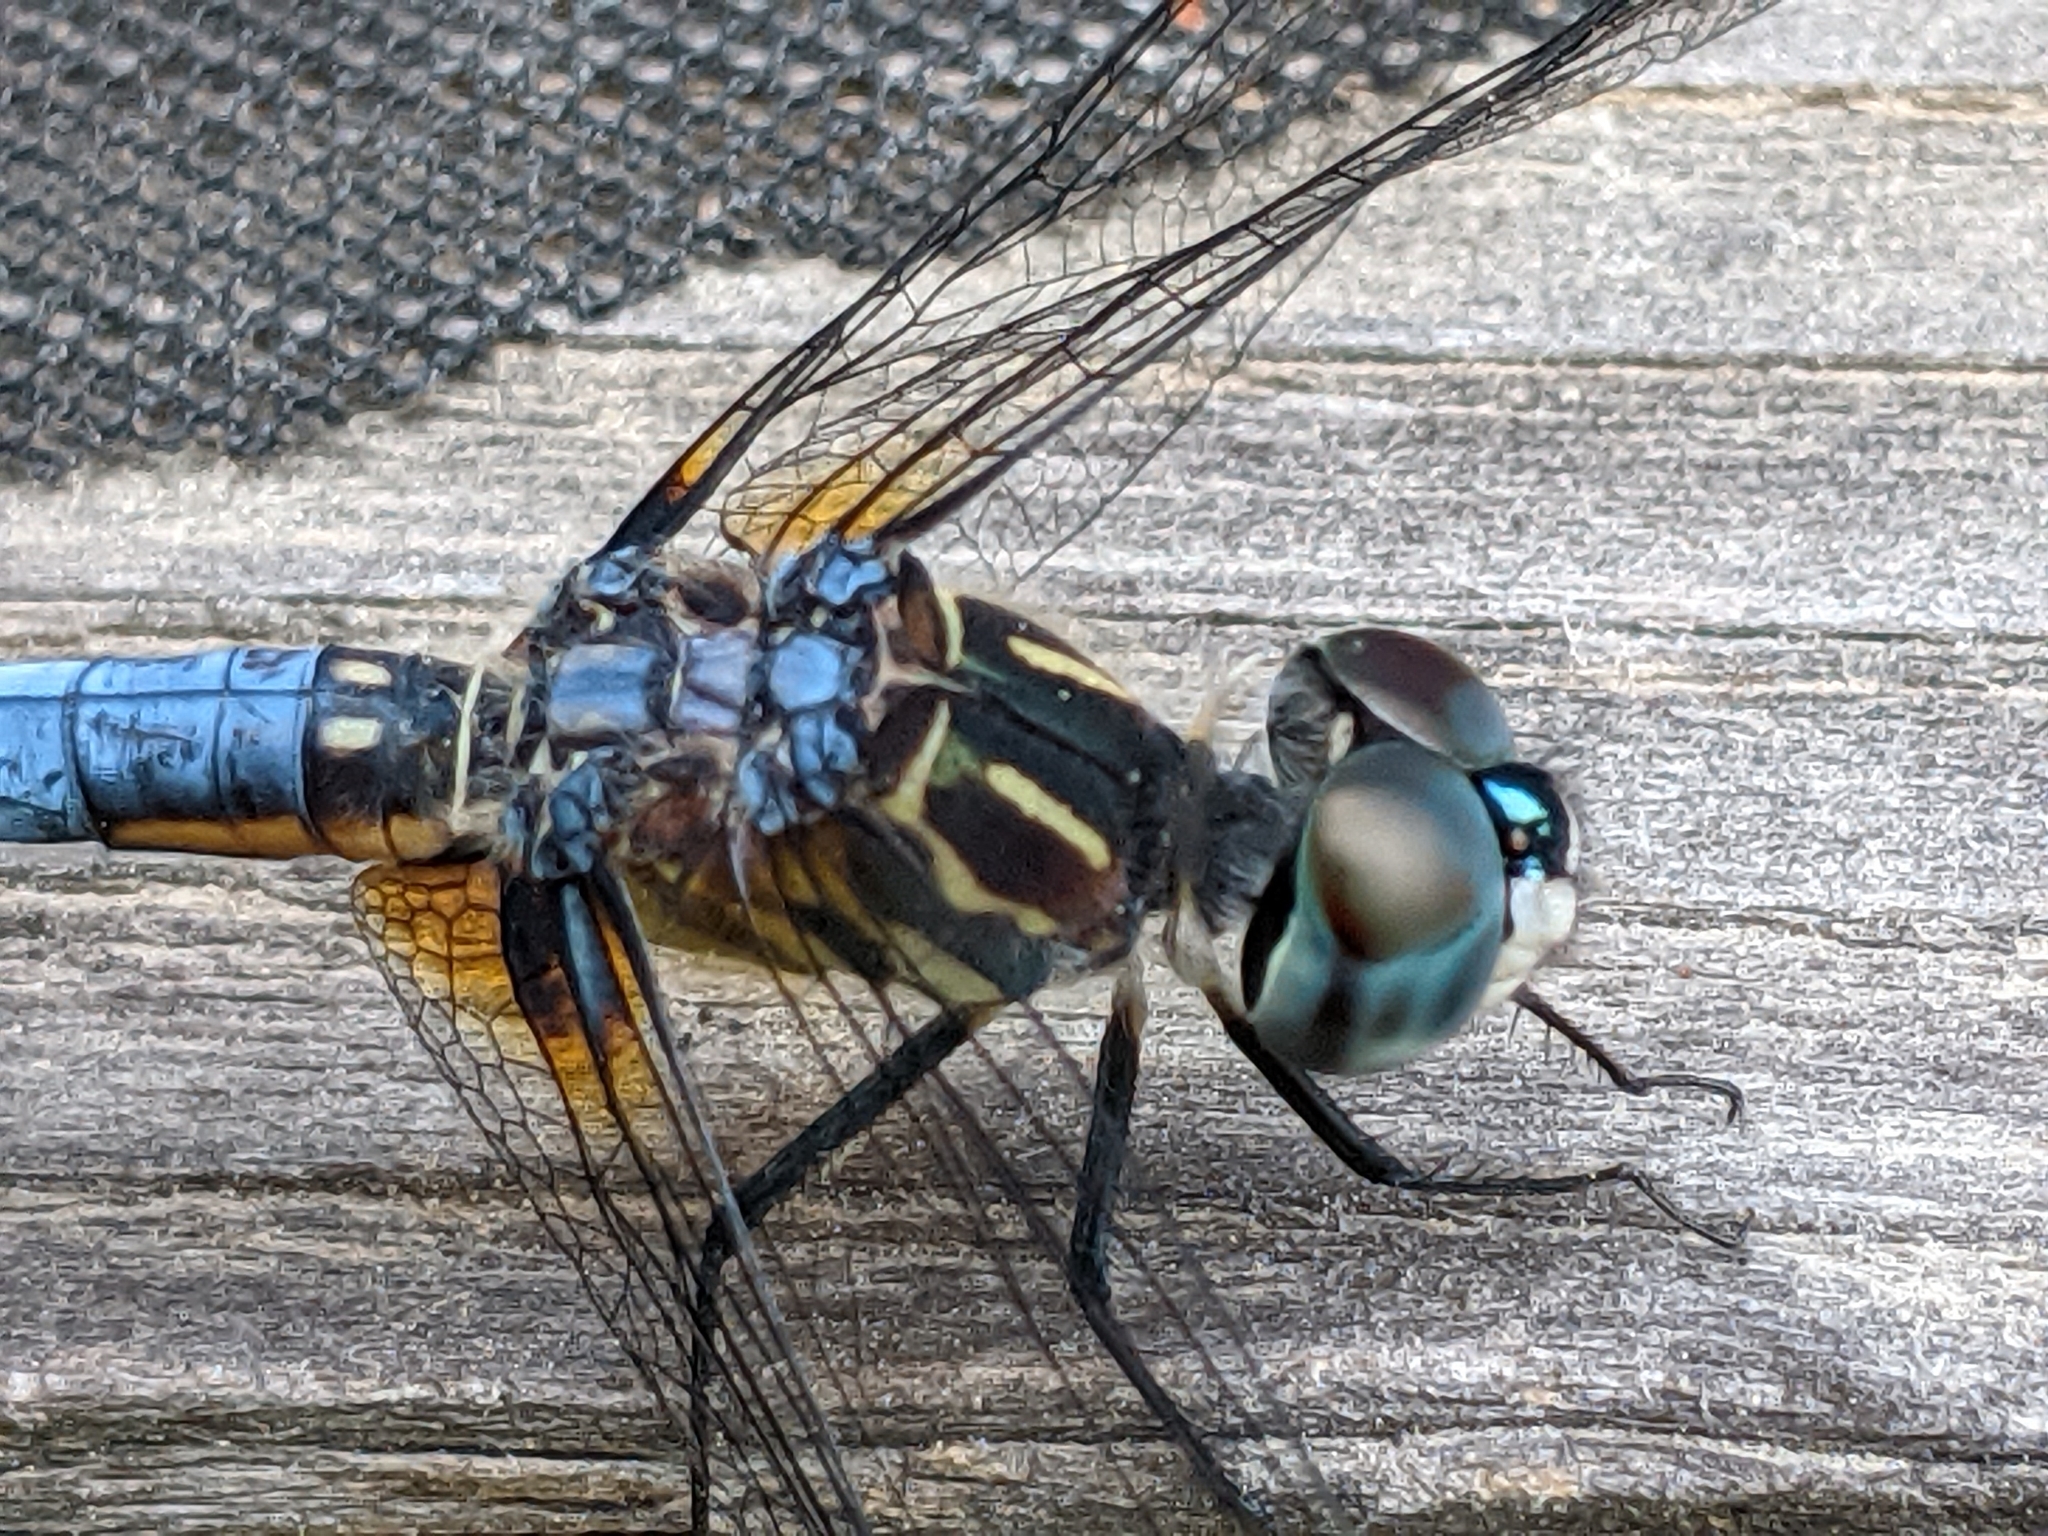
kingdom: Animalia
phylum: Arthropoda
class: Insecta
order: Odonata
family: Libellulidae
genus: Pachydiplax
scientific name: Pachydiplax longipennis
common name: Blue dasher
